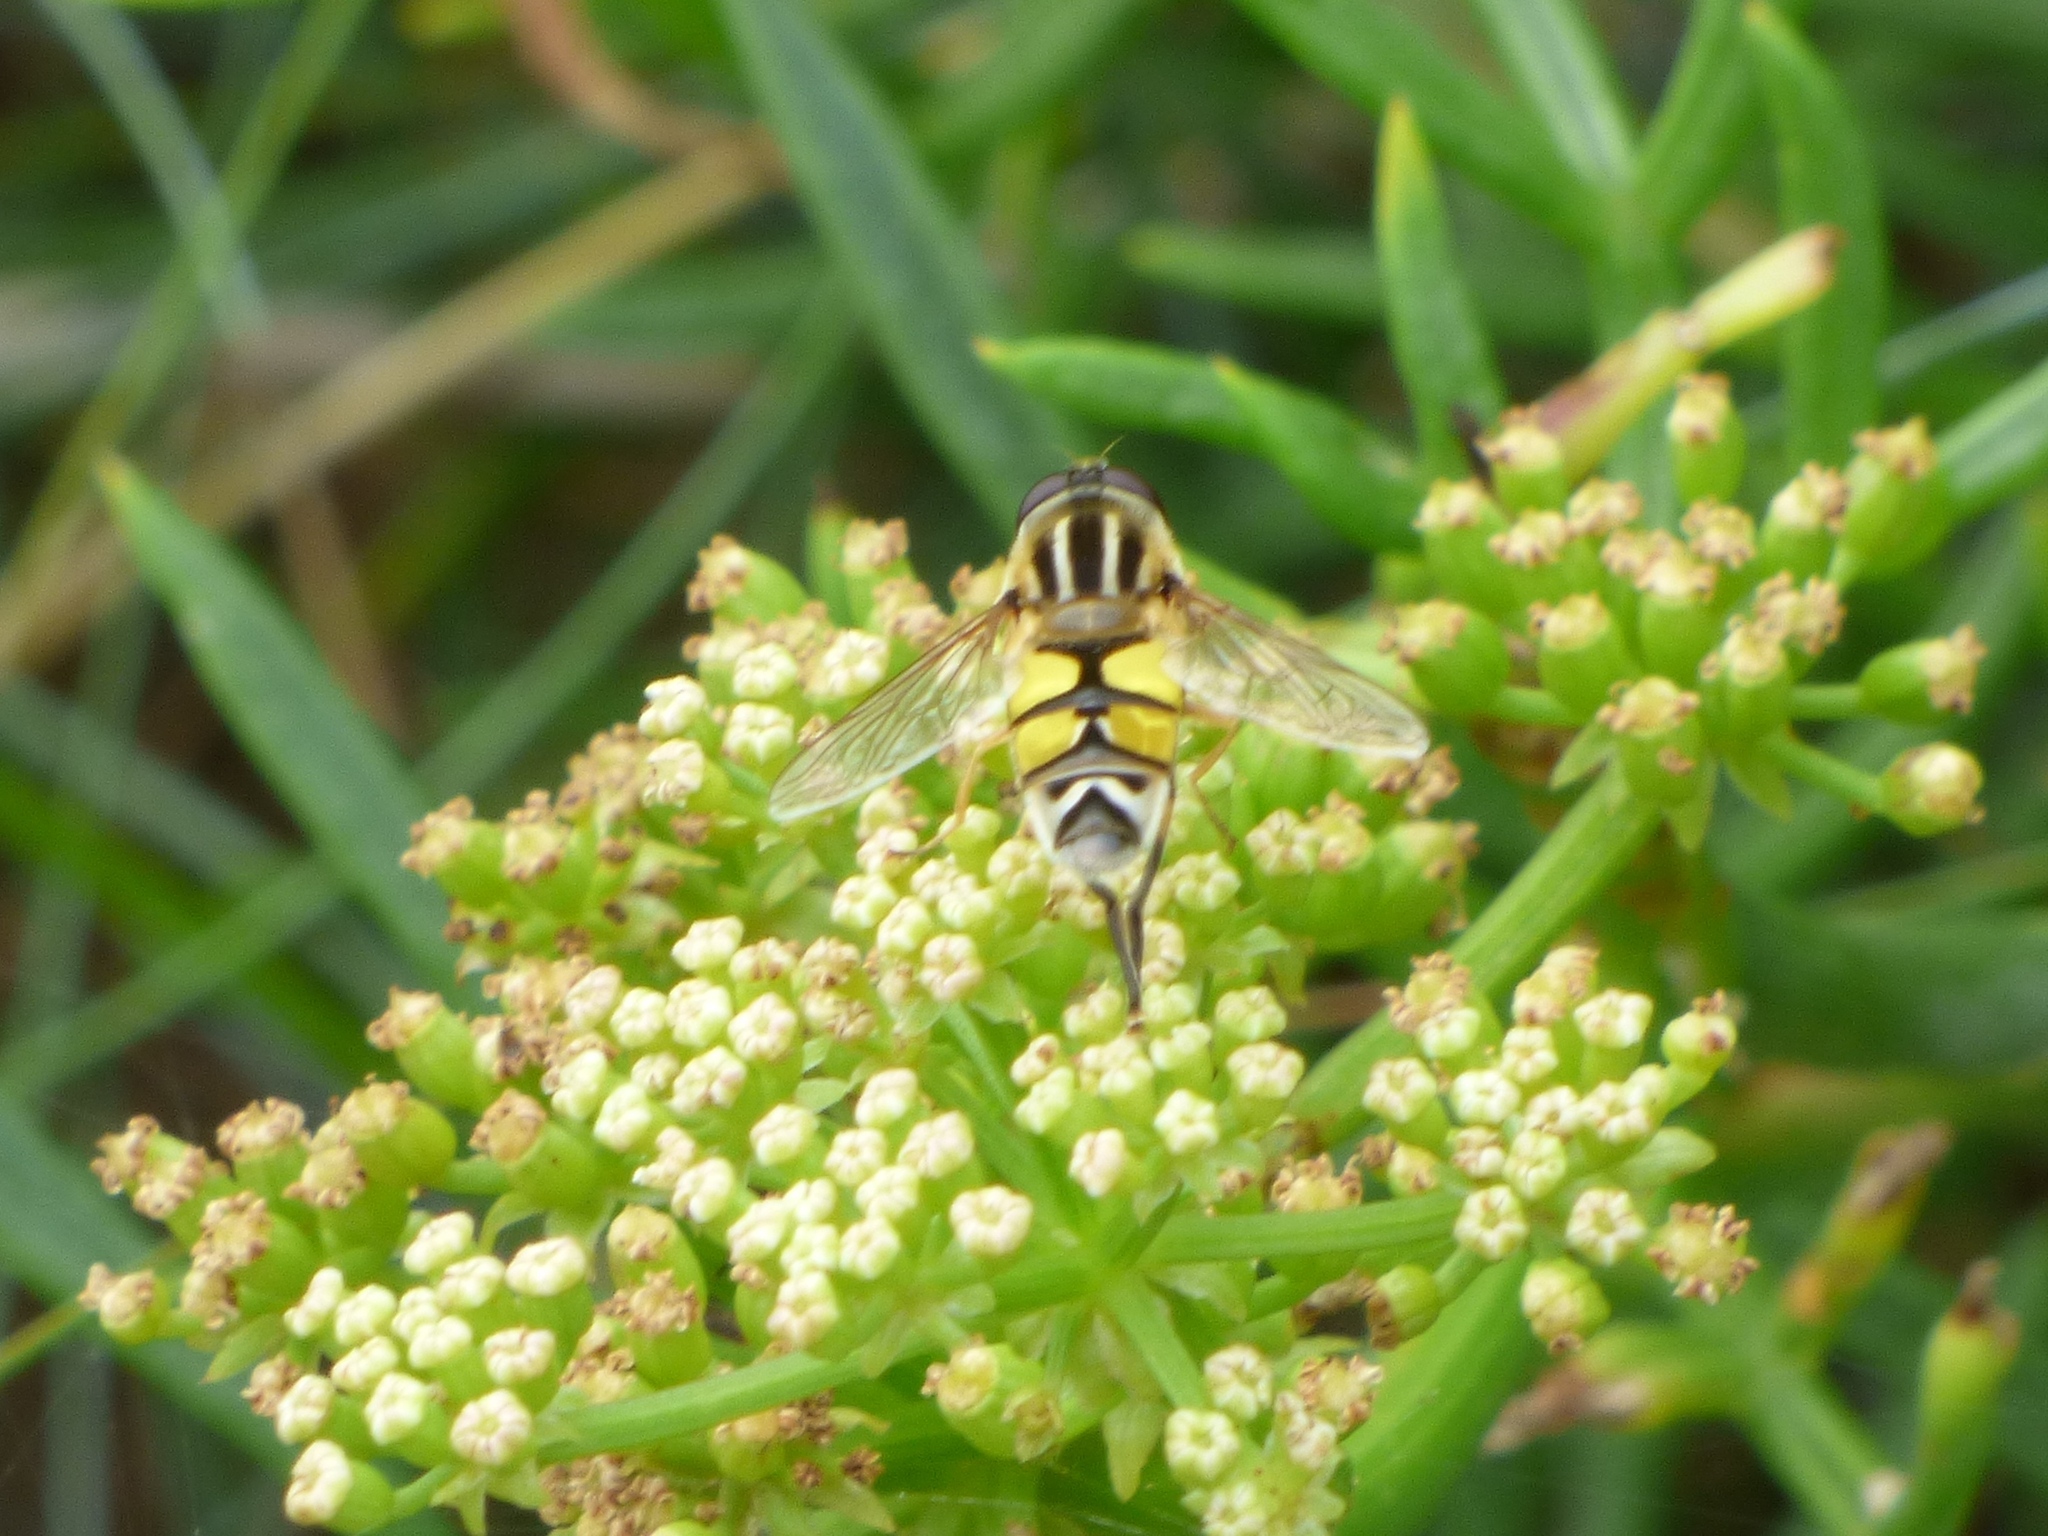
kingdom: Animalia
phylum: Arthropoda
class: Insecta
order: Diptera
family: Syrphidae
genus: Helophilus
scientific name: Helophilus trivittatus
